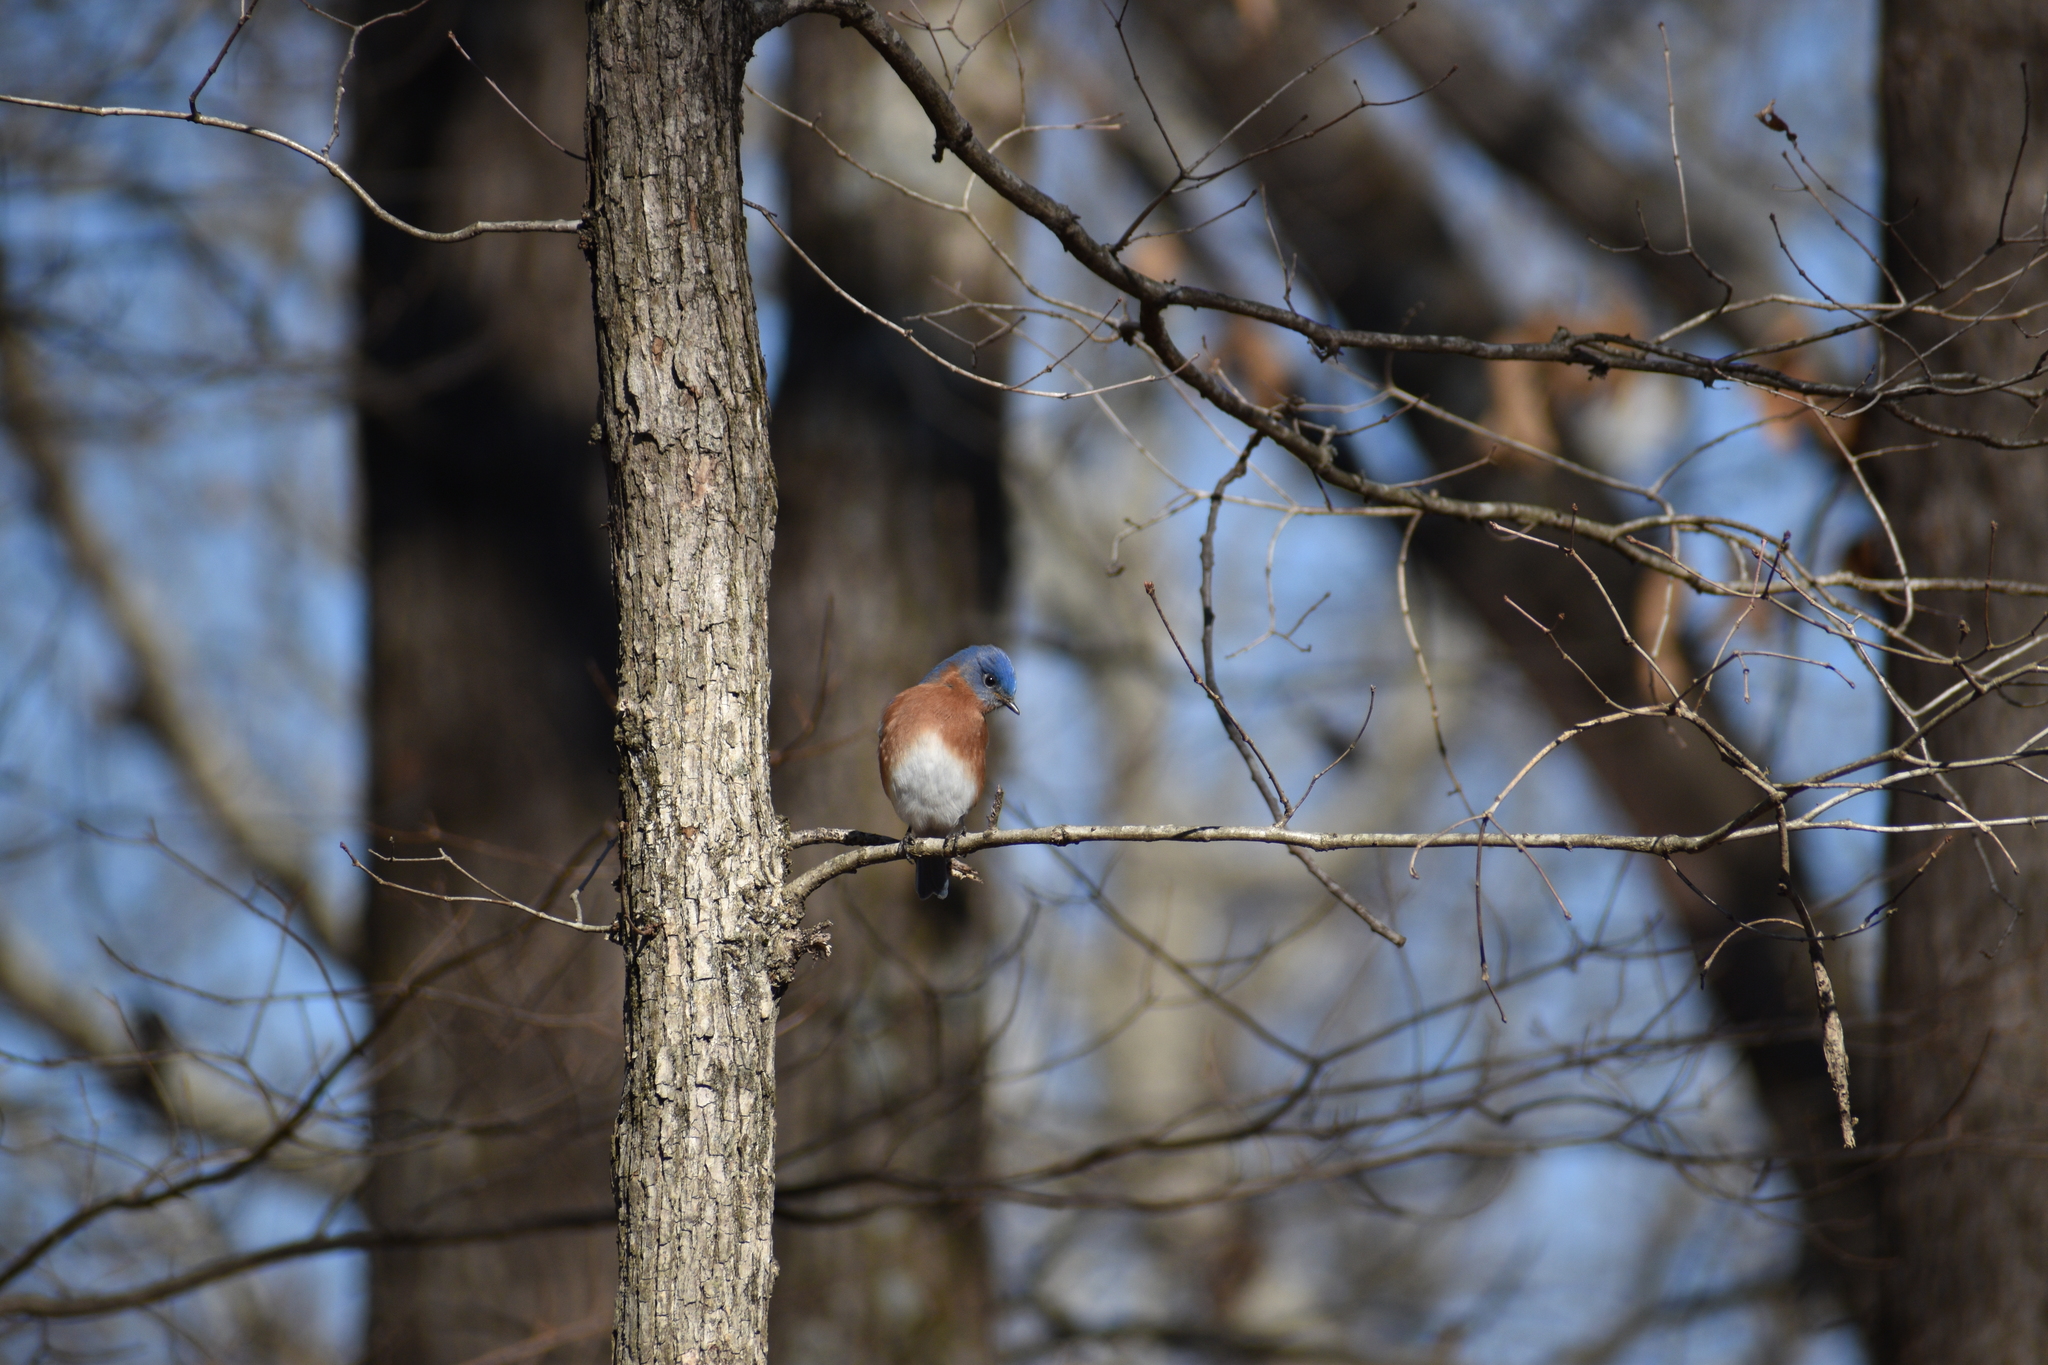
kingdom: Animalia
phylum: Chordata
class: Aves
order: Passeriformes
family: Turdidae
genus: Sialia
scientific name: Sialia sialis
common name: Eastern bluebird
